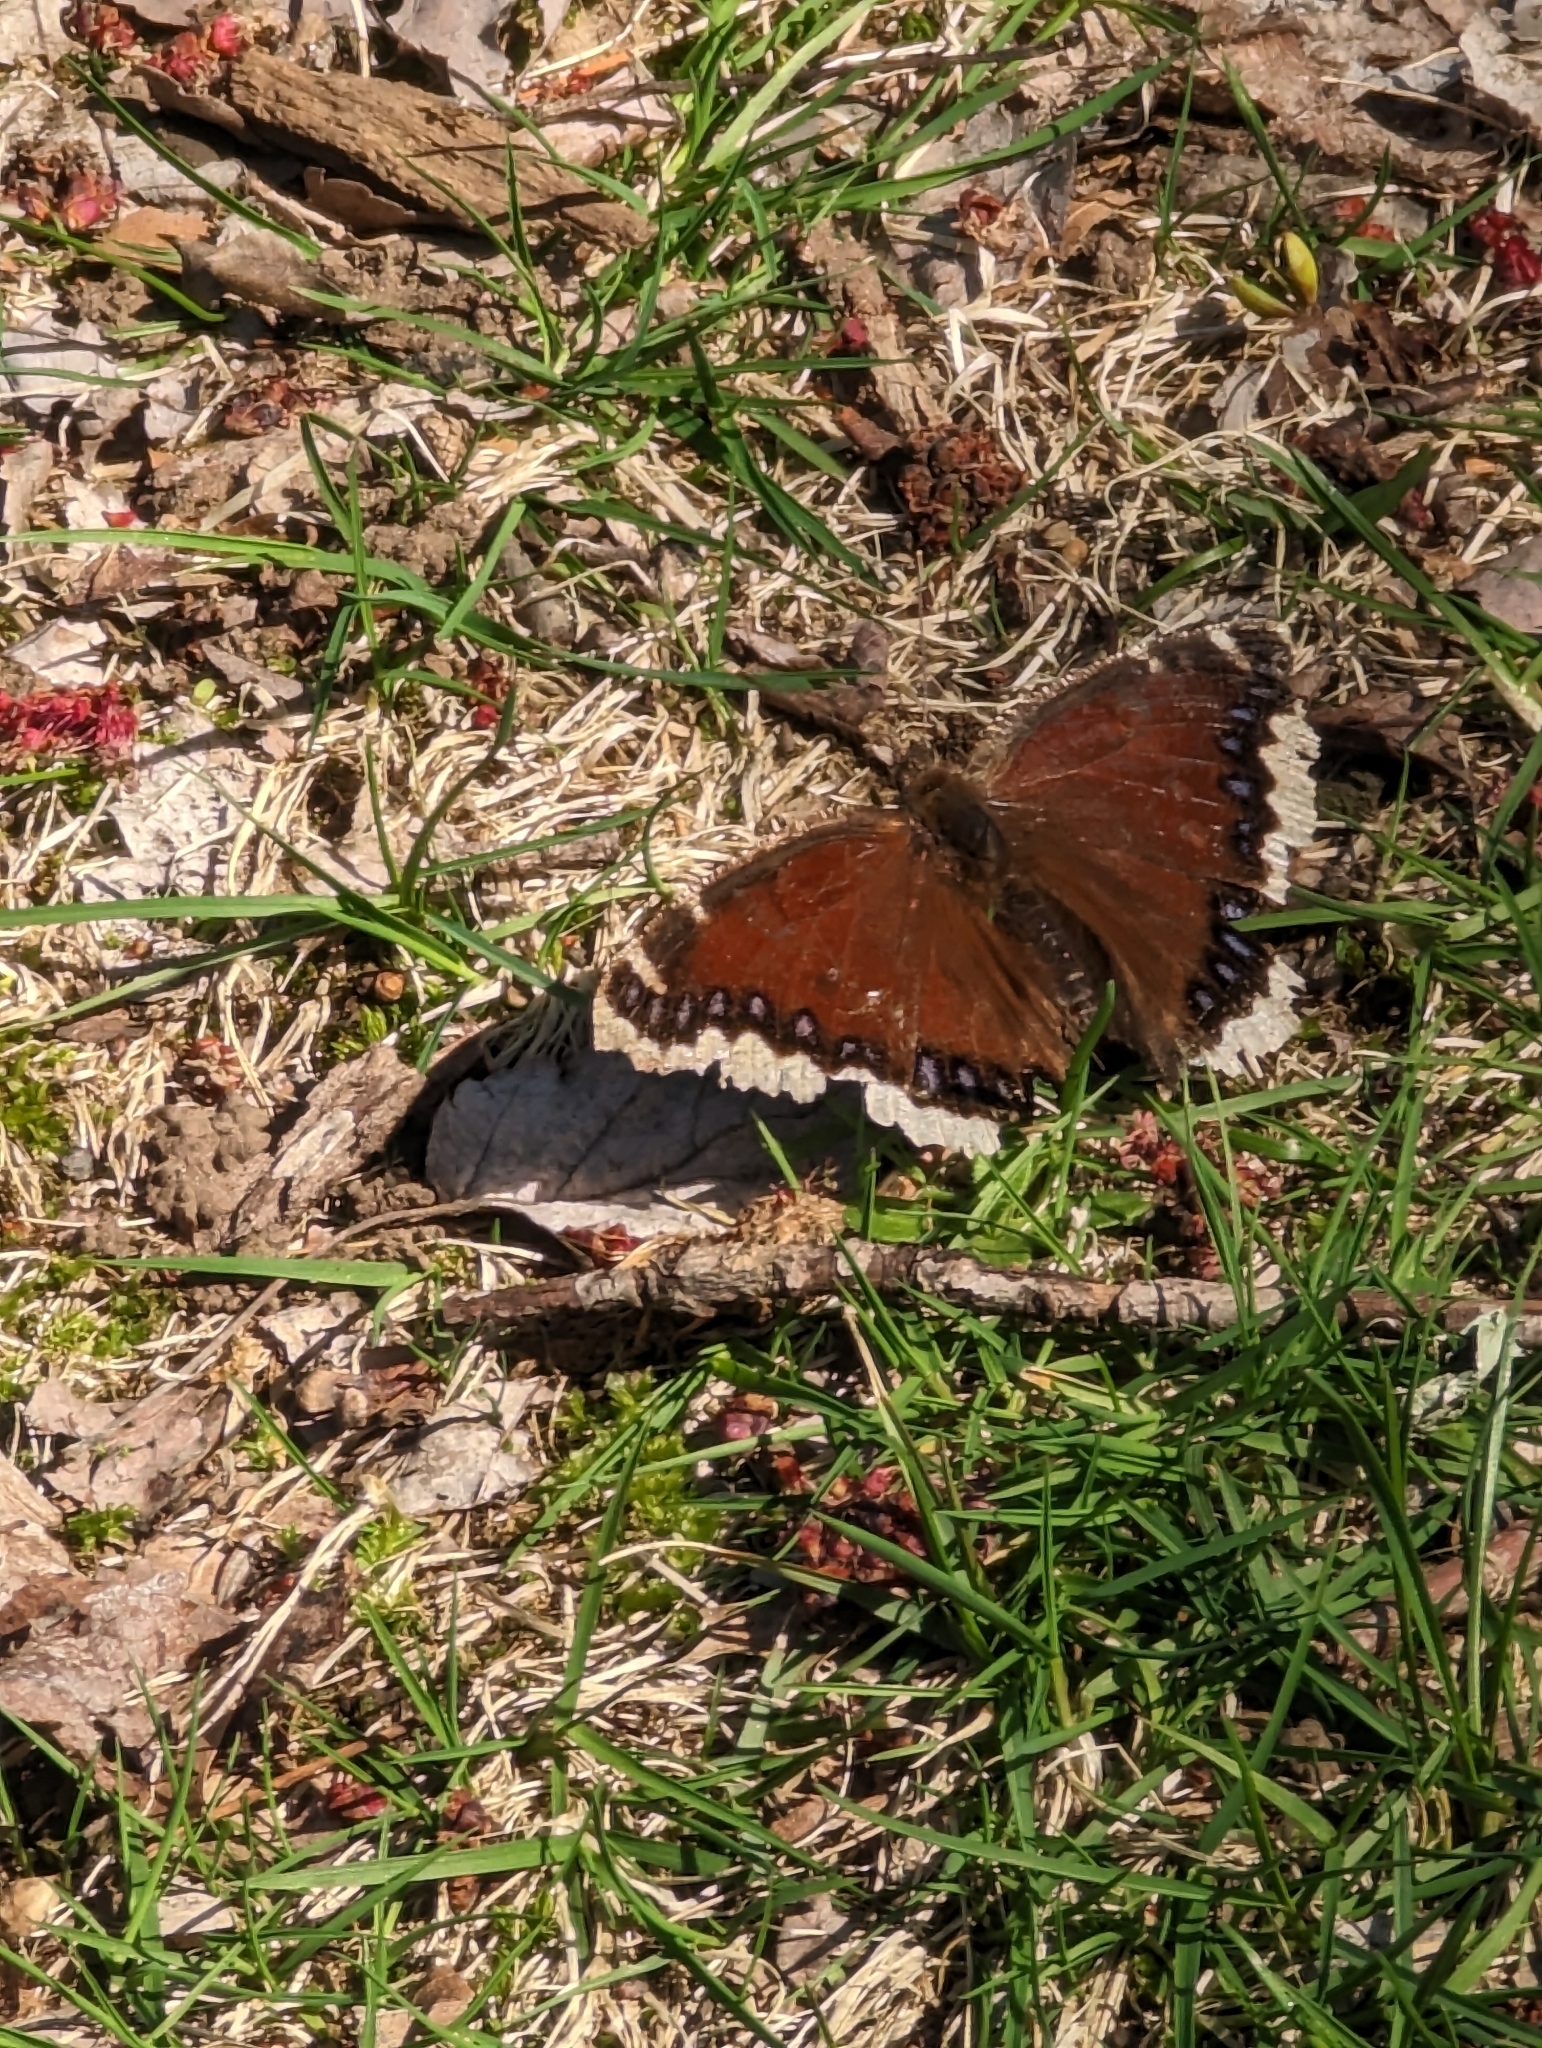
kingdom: Animalia
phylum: Arthropoda
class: Insecta
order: Lepidoptera
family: Nymphalidae
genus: Nymphalis
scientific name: Nymphalis antiopa
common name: Camberwell beauty
